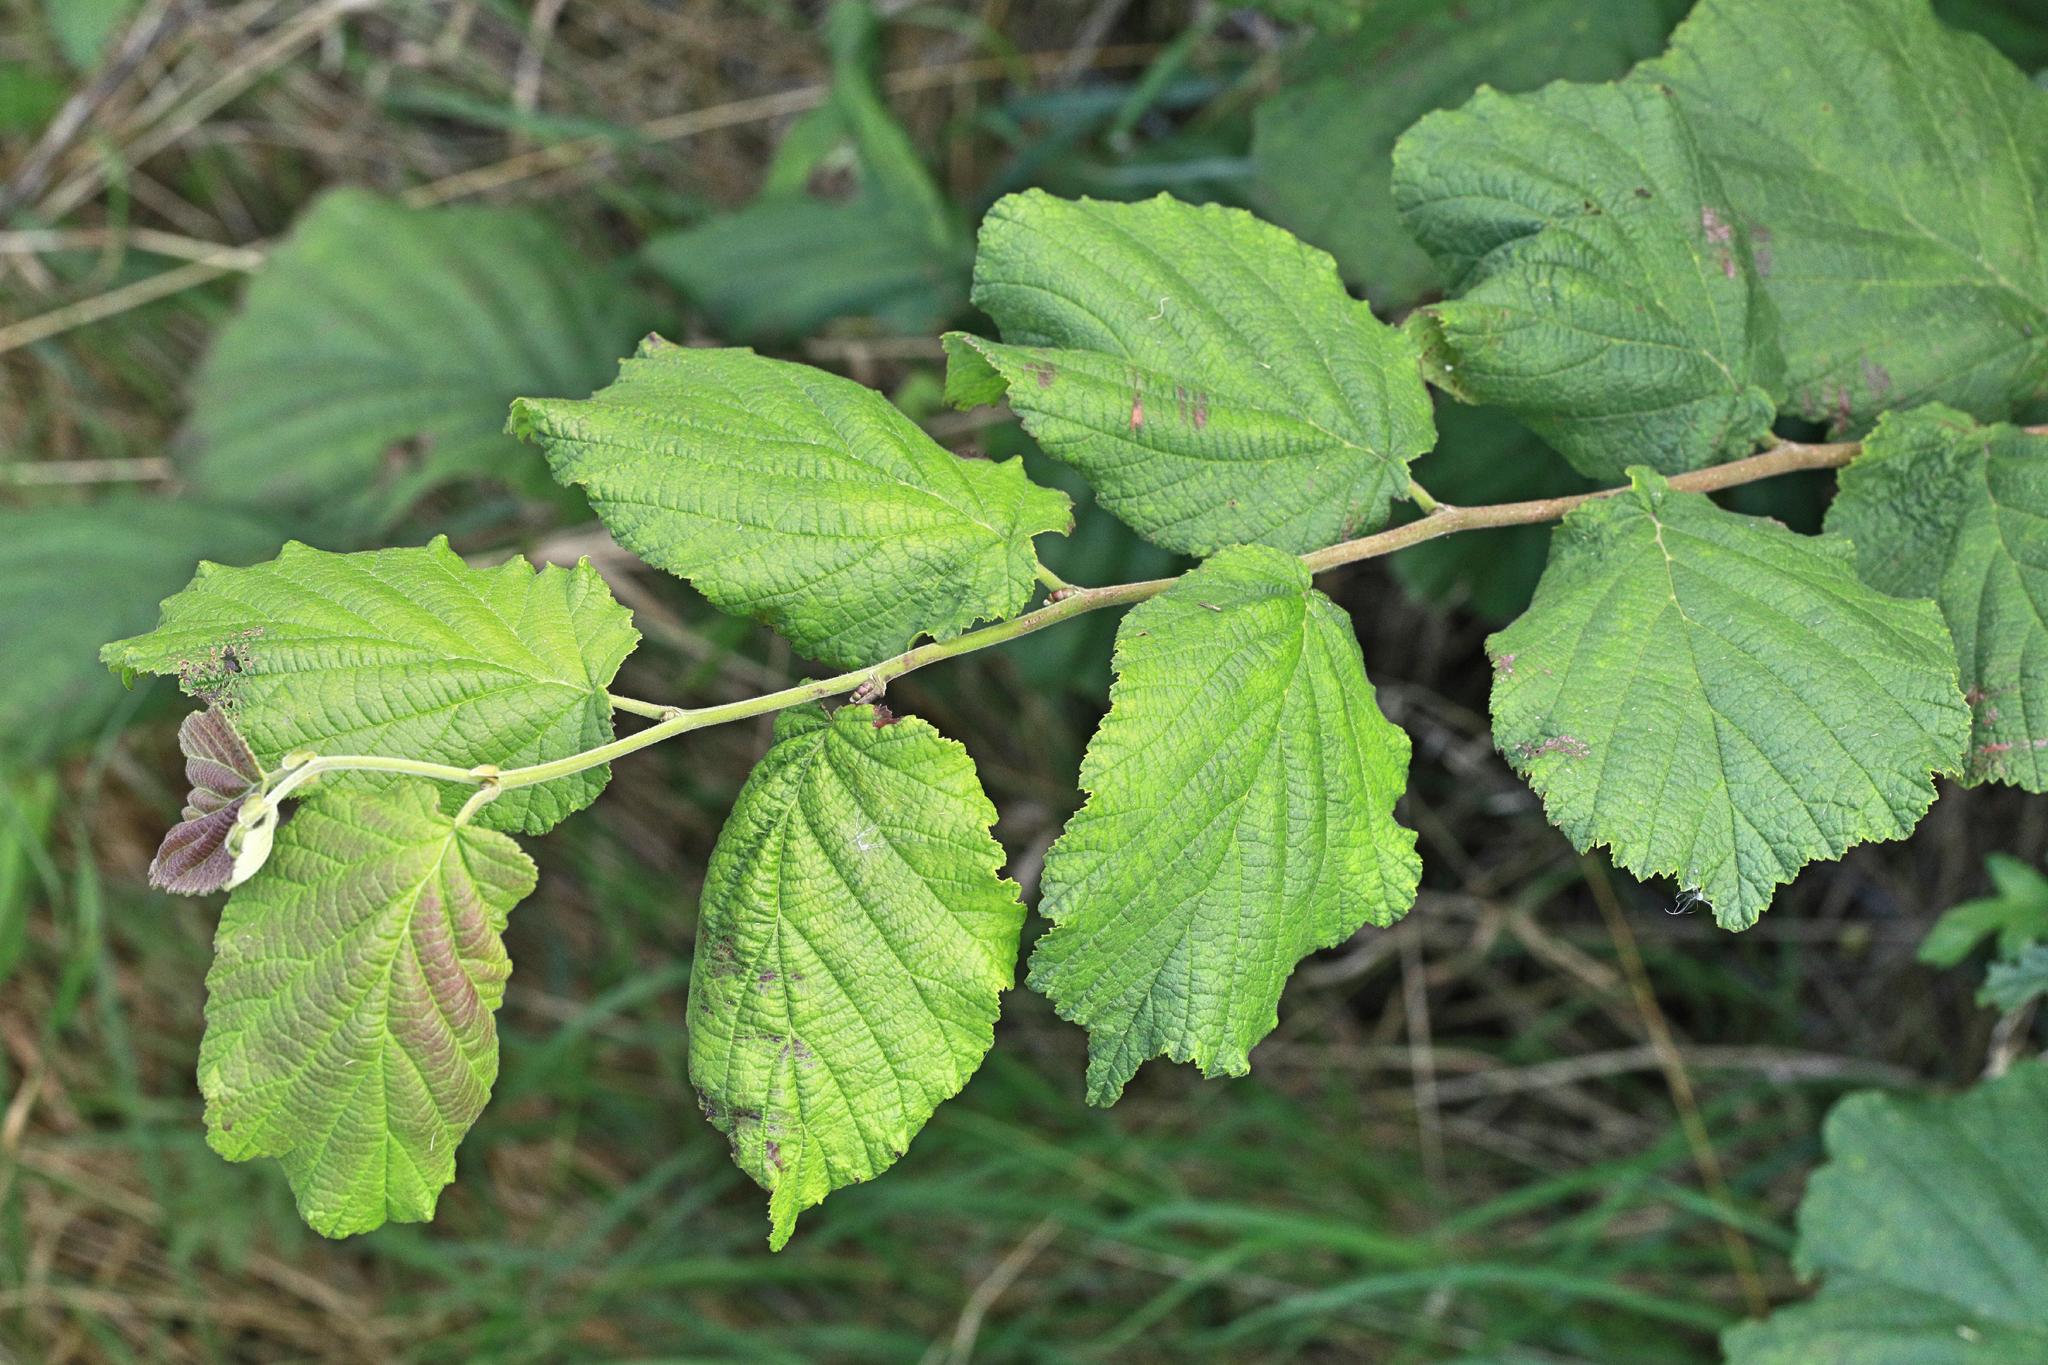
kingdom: Plantae
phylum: Tracheophyta
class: Magnoliopsida
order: Fagales
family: Betulaceae
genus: Corylus
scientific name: Corylus avellana
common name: European hazel
